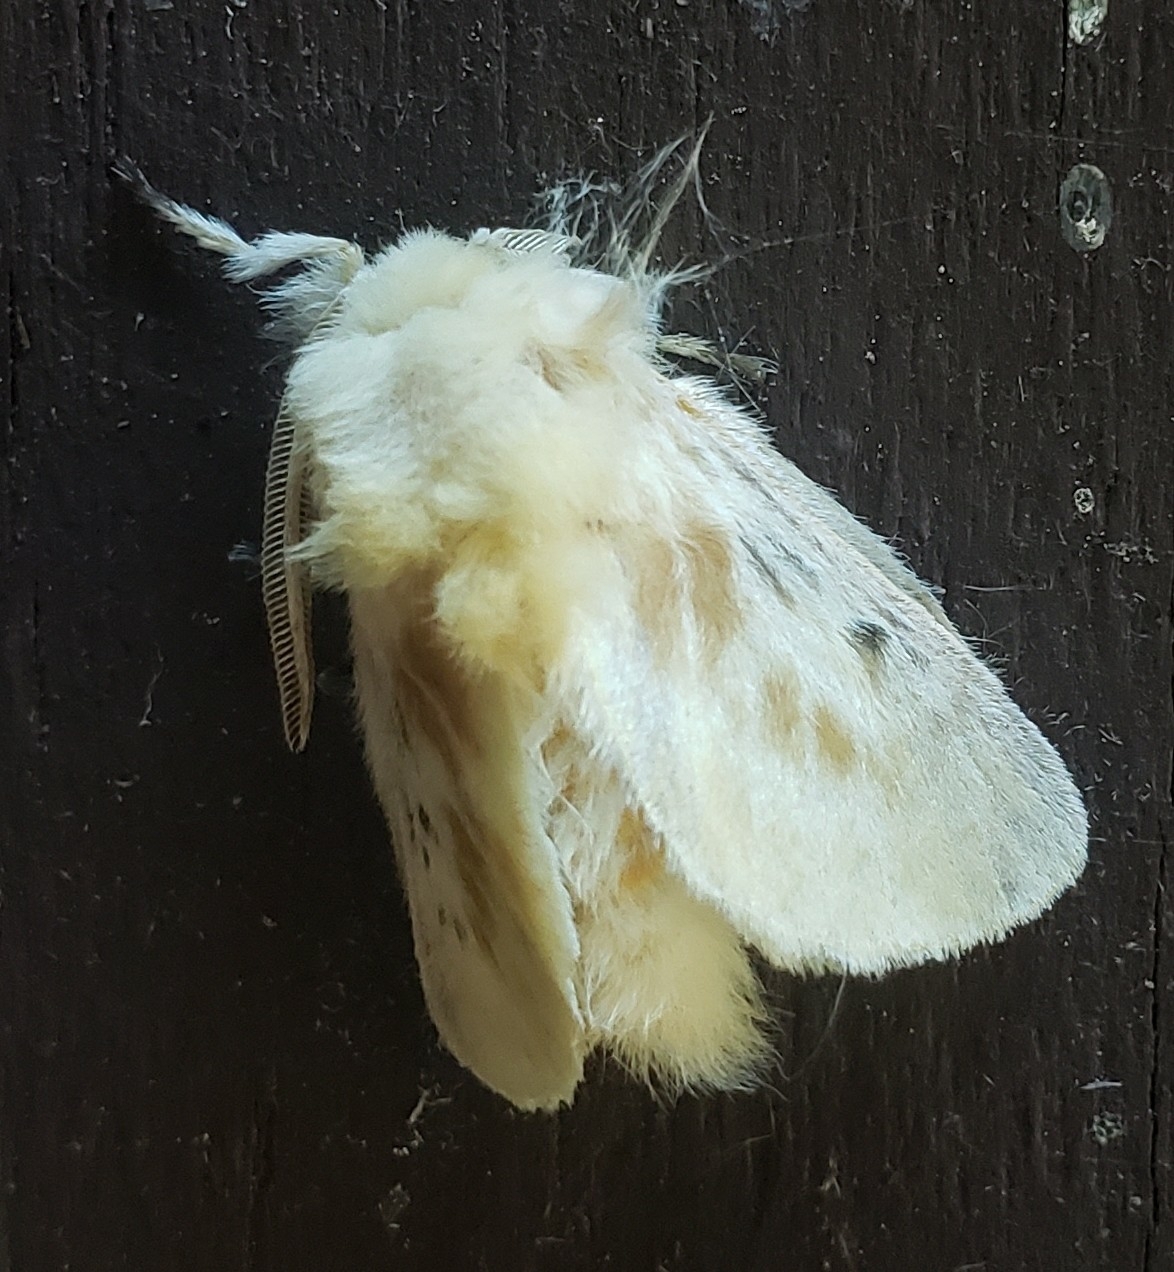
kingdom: Animalia
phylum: Arthropoda
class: Insecta
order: Lepidoptera
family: Megalopygidae
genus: Megalopyge
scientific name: Megalopyge crispata
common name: Black-waved flannel moth
